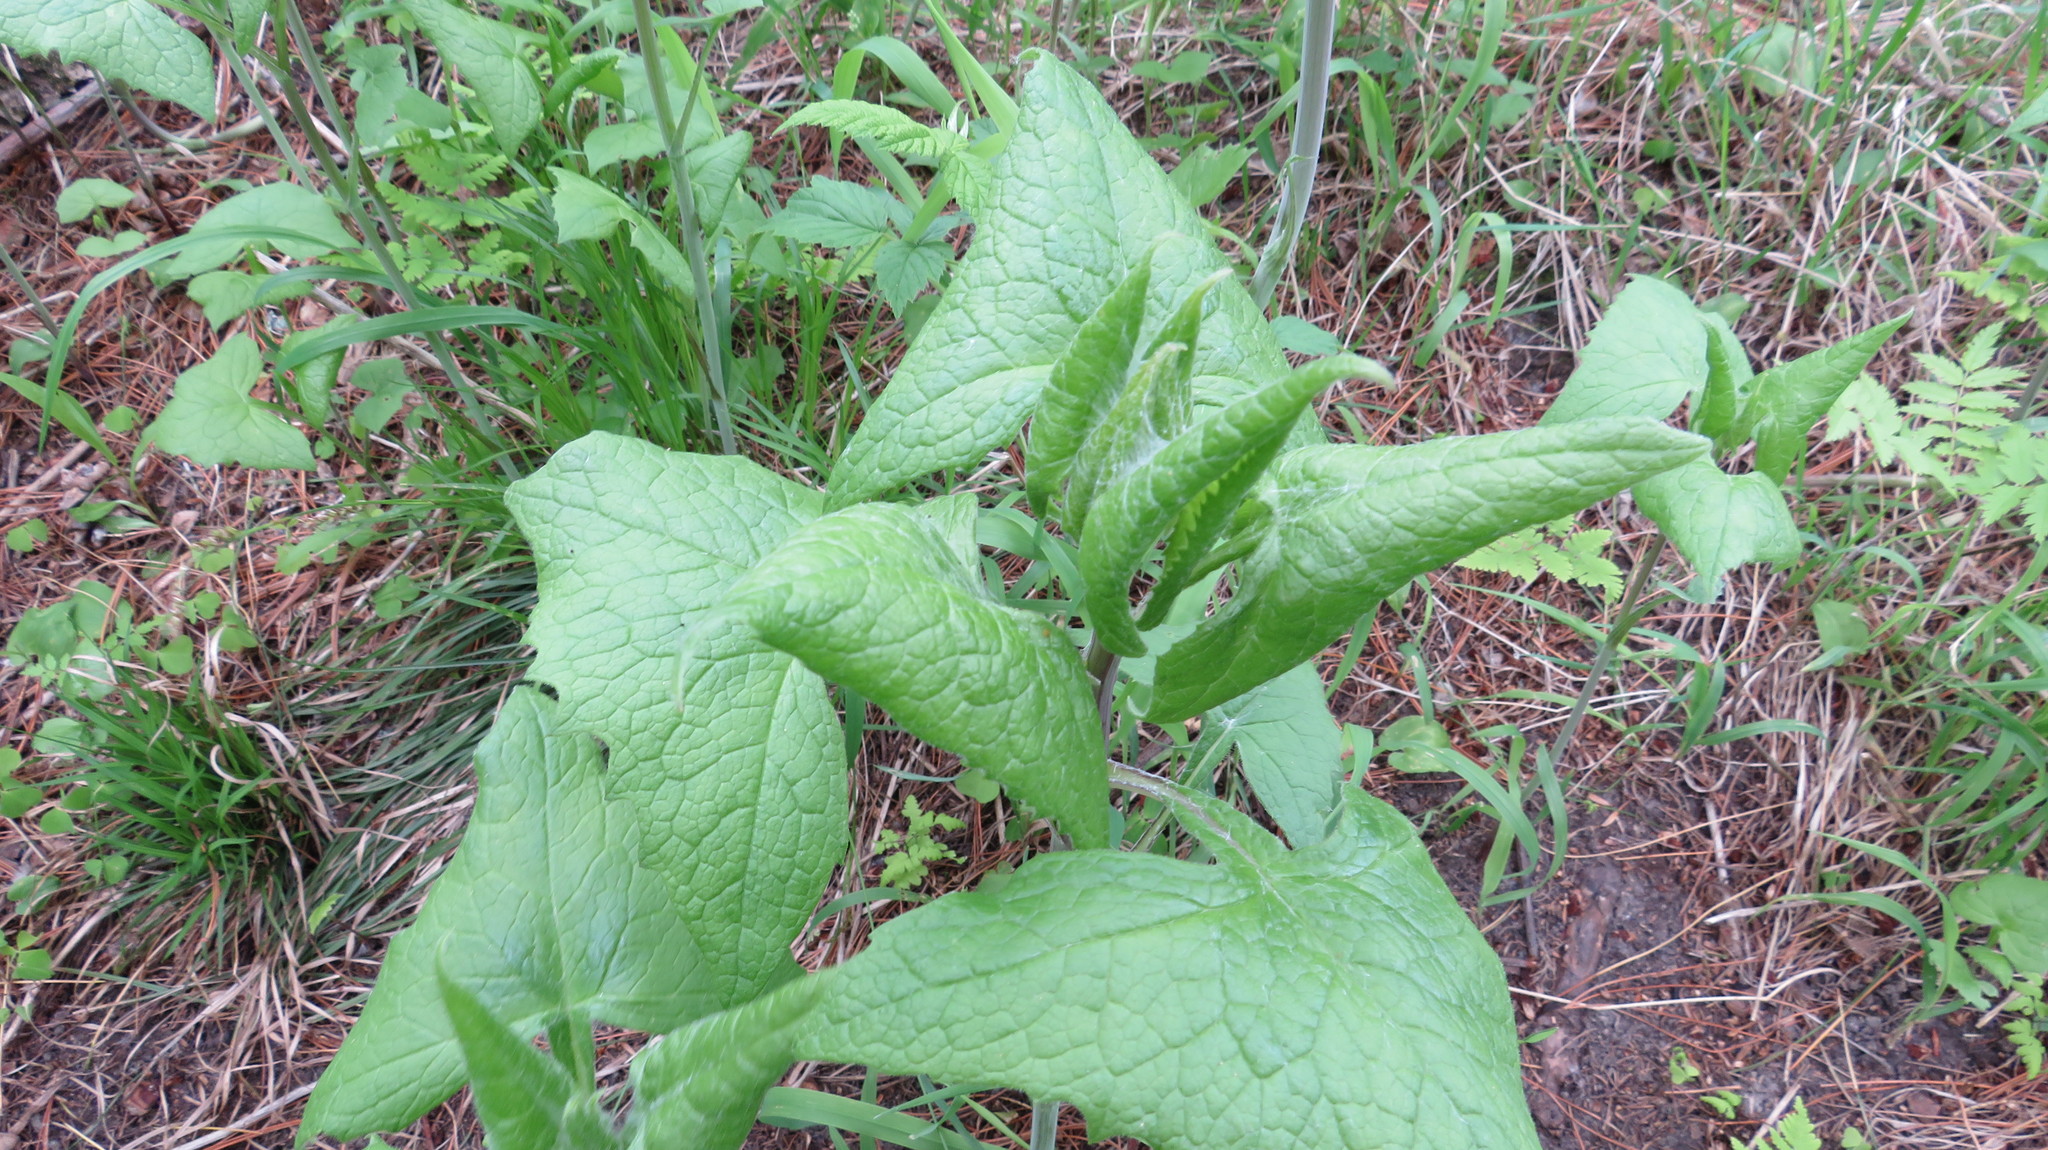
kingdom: Plantae
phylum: Tracheophyta
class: Magnoliopsida
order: Asterales
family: Asteraceae
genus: Parasenecio
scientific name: Parasenecio hastatus
